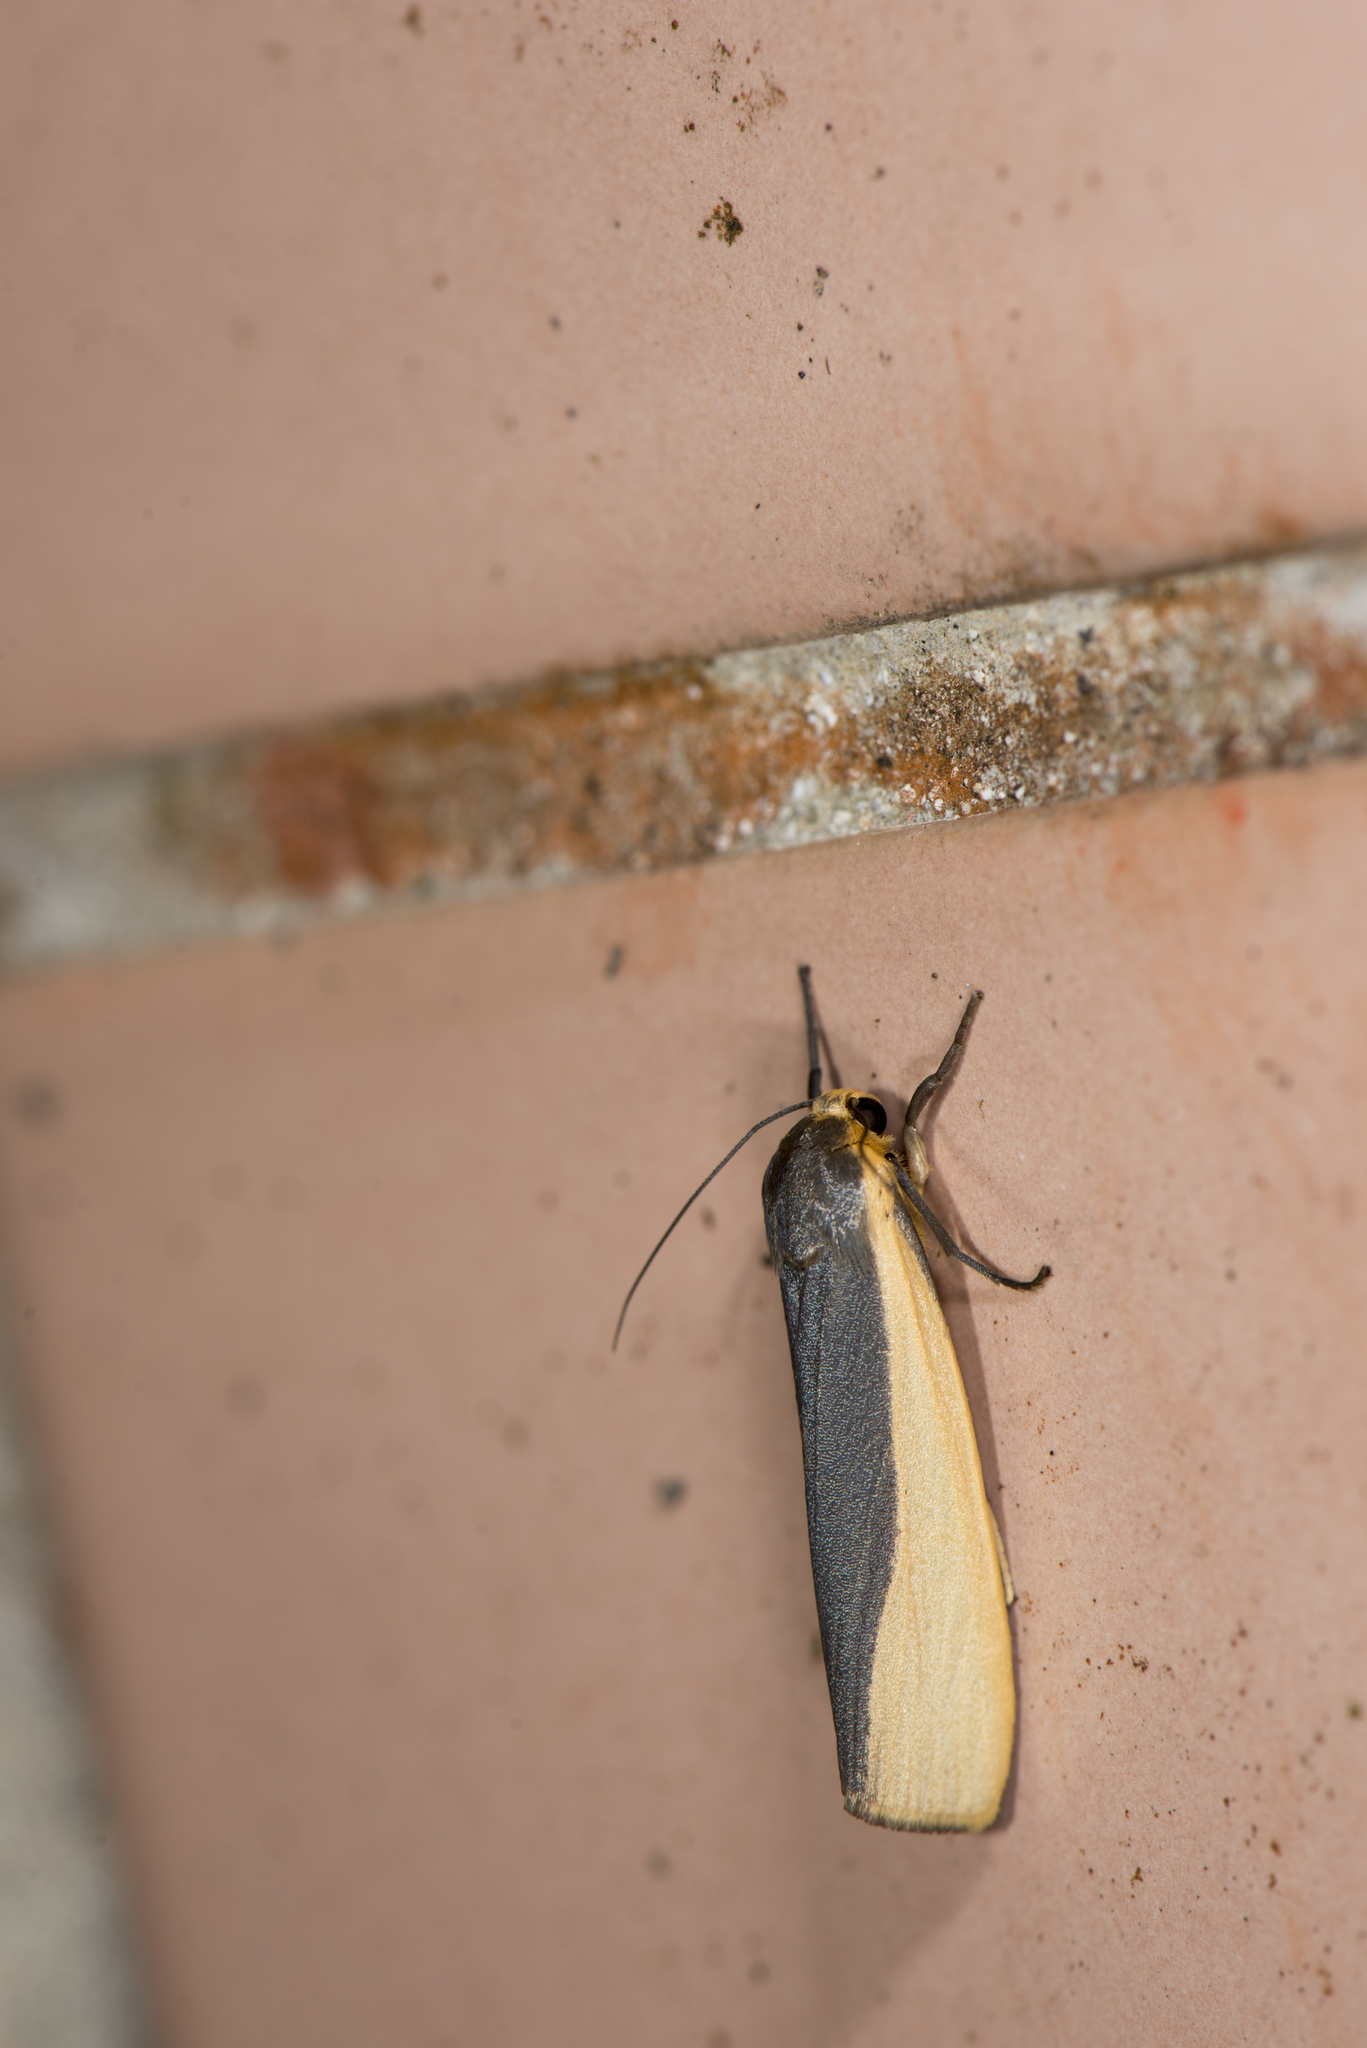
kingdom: Animalia
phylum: Arthropoda
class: Insecta
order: Lepidoptera
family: Erebidae
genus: Hesudra
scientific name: Hesudra divisa
